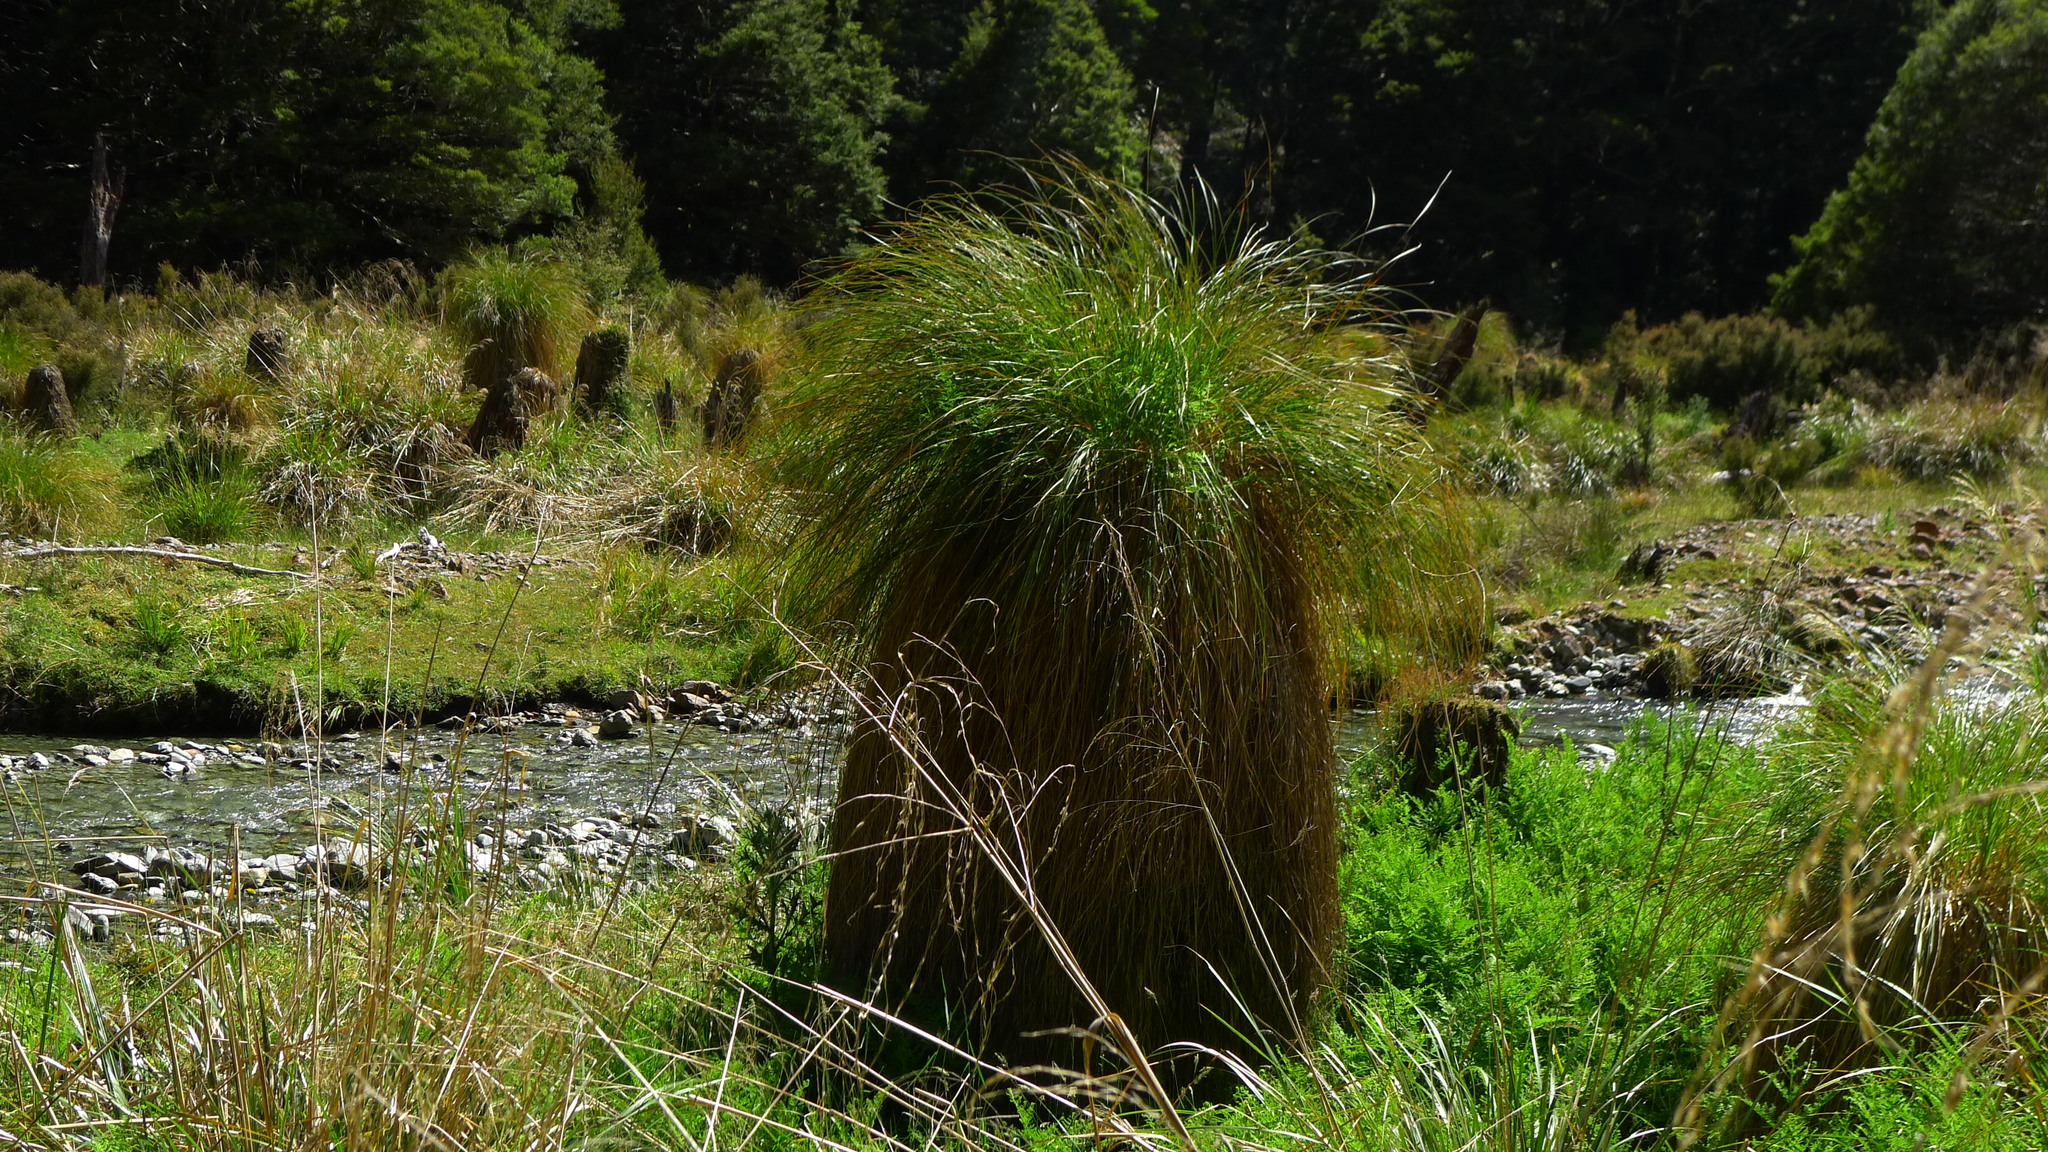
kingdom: Plantae
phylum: Tracheophyta
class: Liliopsida
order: Poales
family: Cyperaceae
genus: Carex
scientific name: Carex secta
